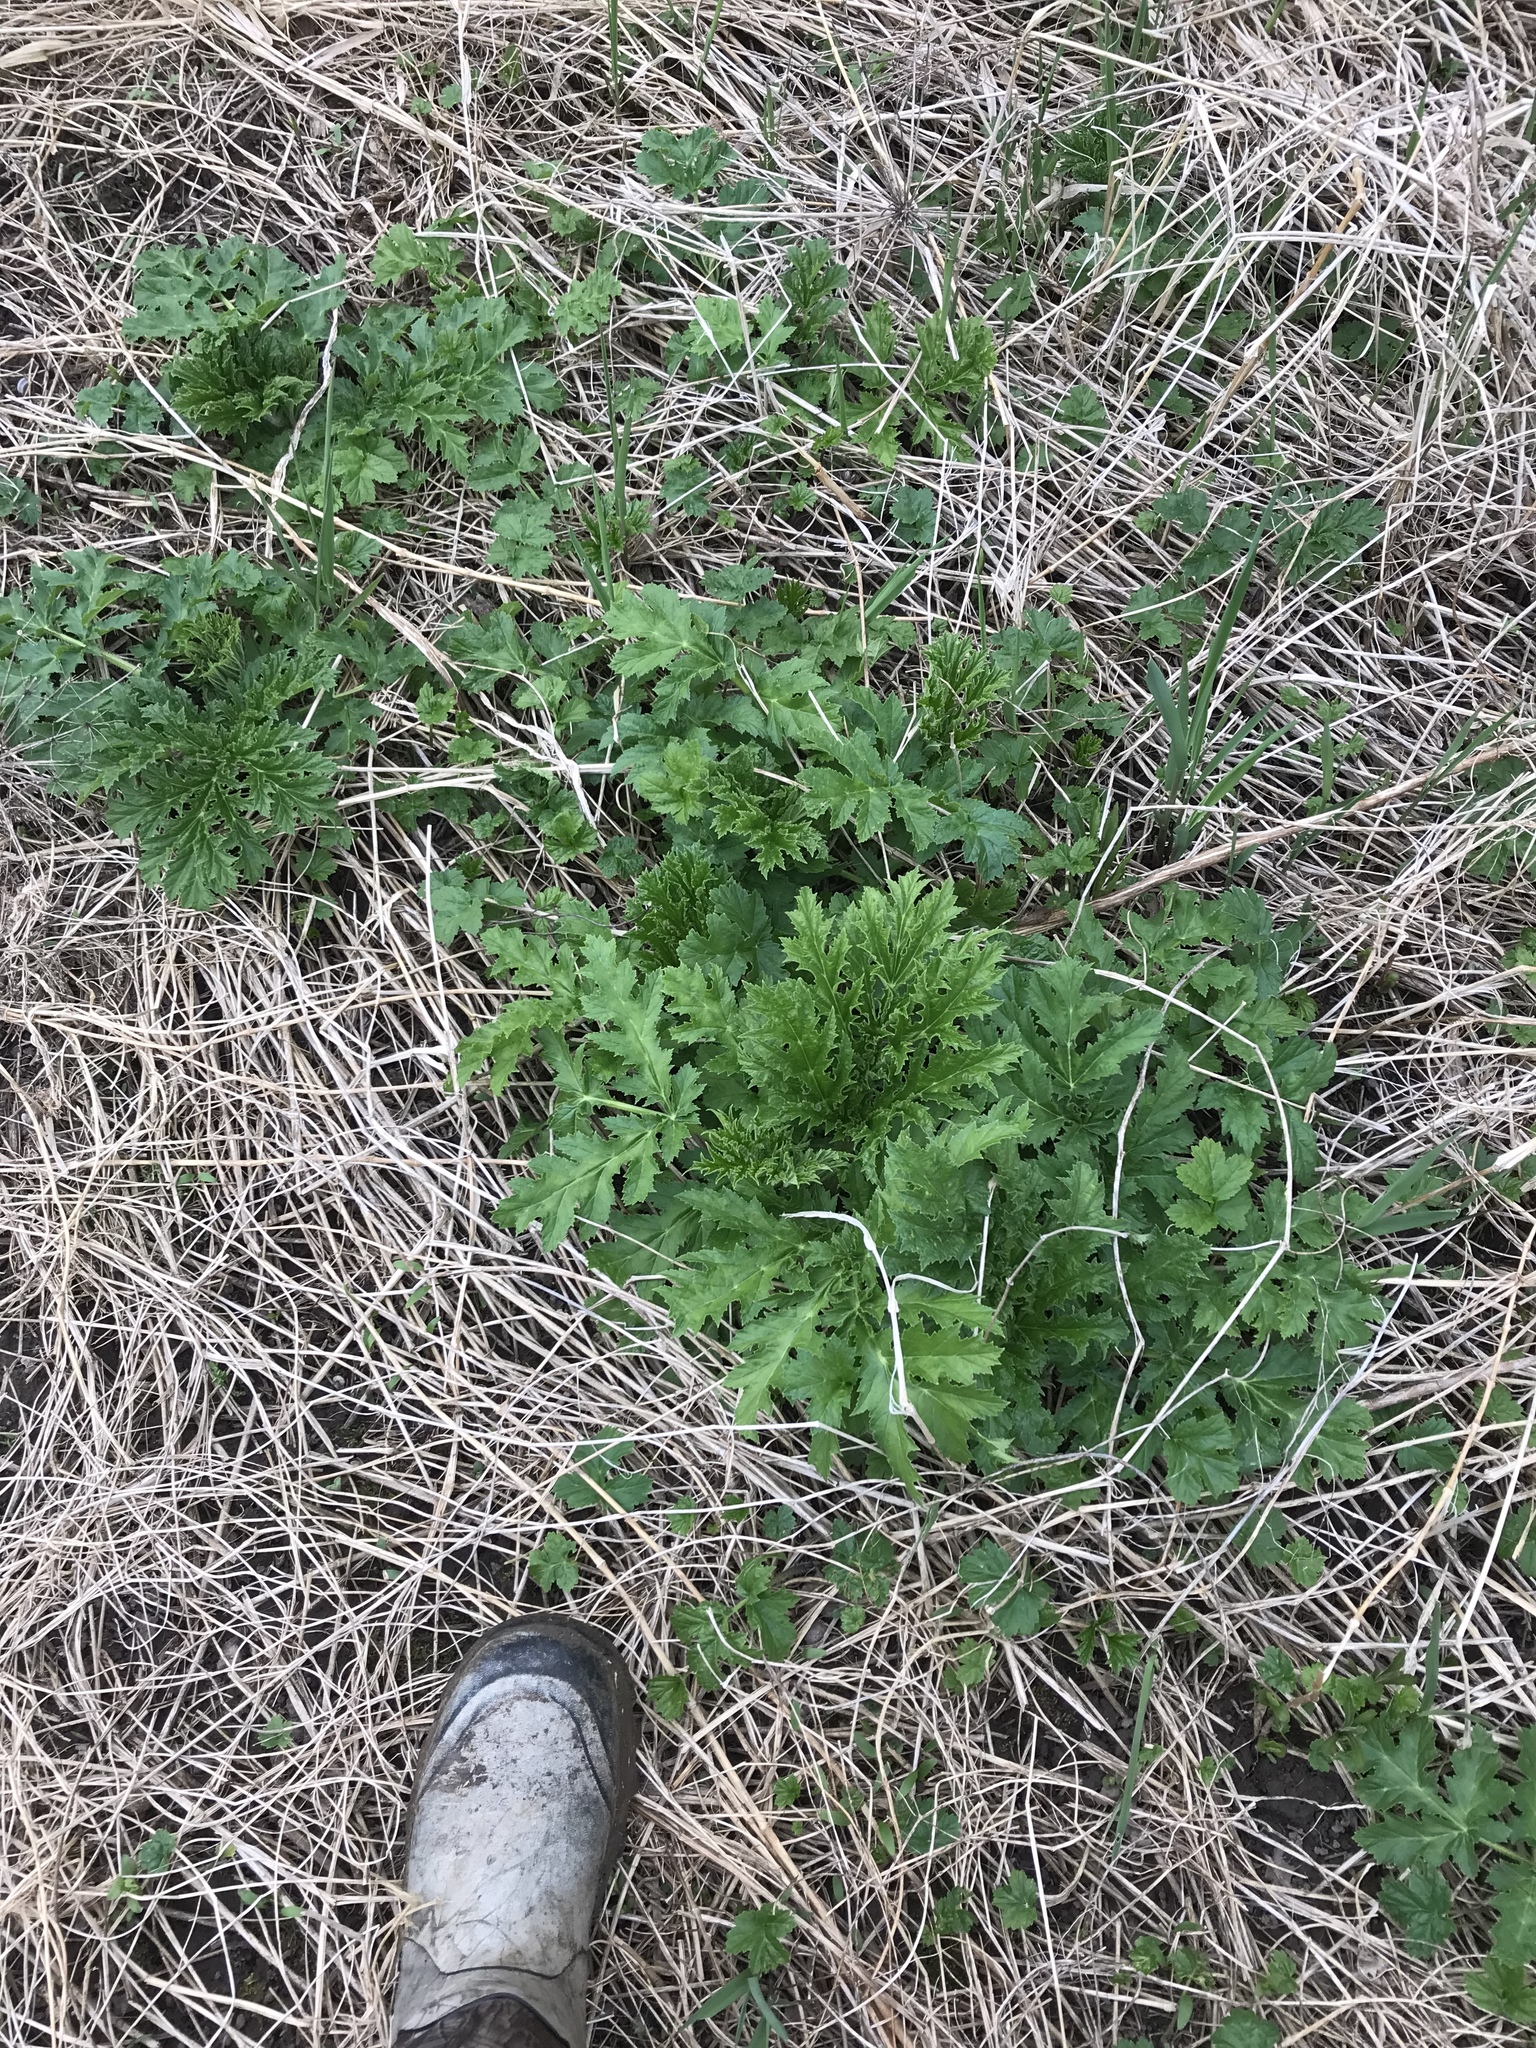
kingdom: Plantae
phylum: Tracheophyta
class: Magnoliopsida
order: Apiales
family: Apiaceae
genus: Heracleum
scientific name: Heracleum mantegazzianum
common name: Giant hogweed
